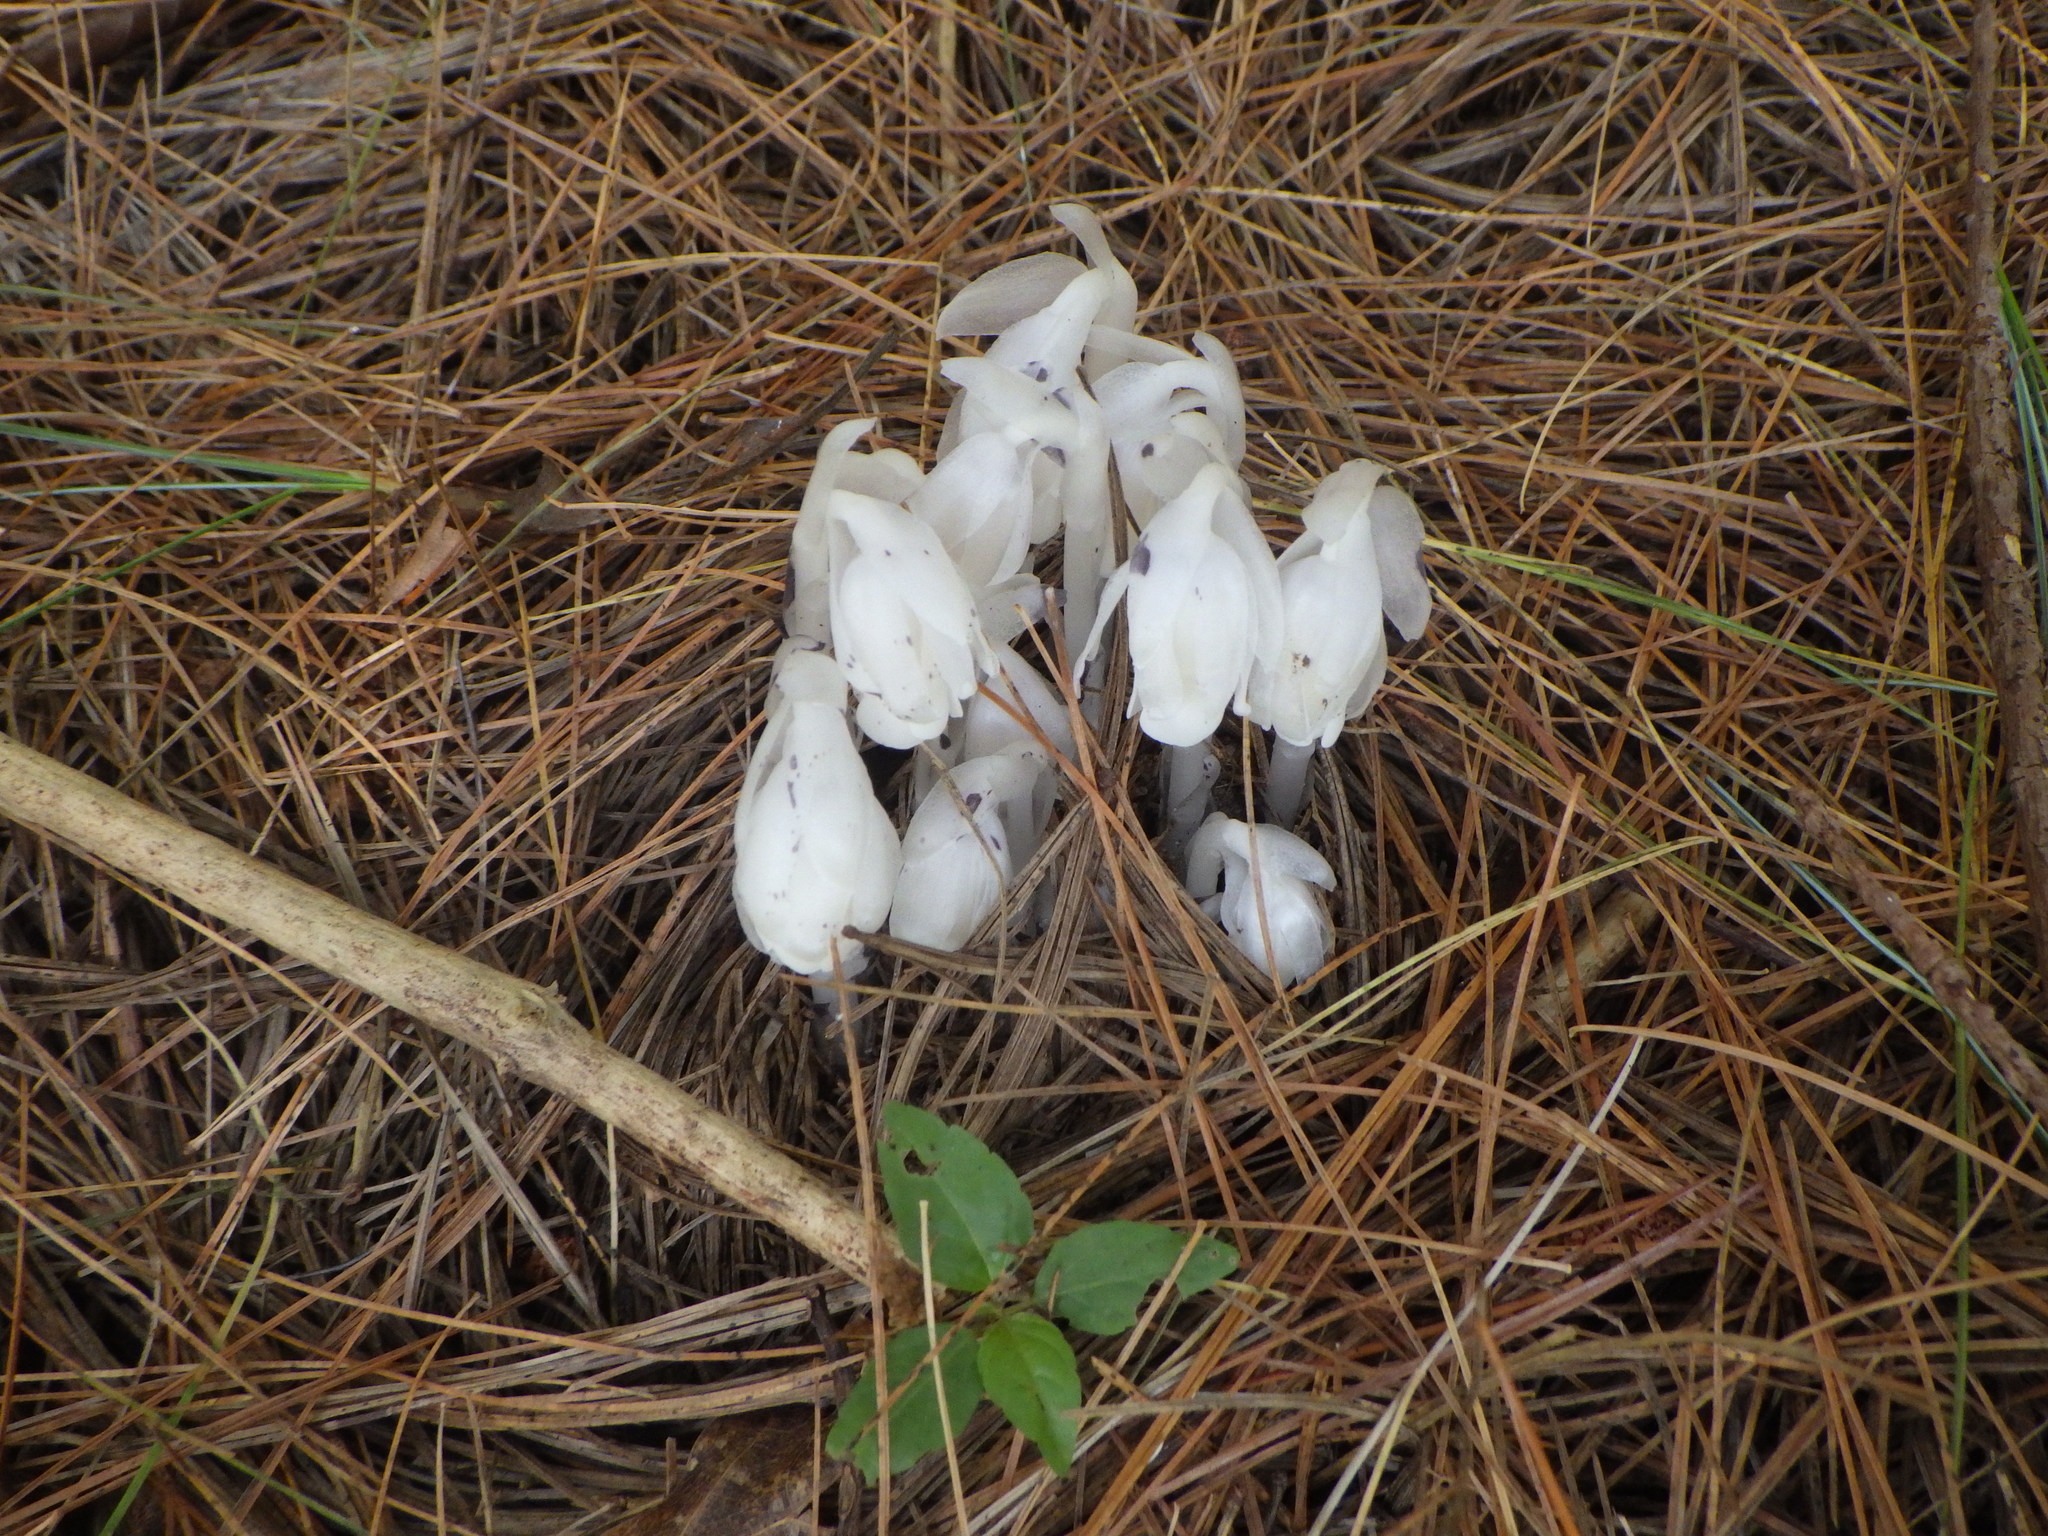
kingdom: Plantae
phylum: Tracheophyta
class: Magnoliopsida
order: Ericales
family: Ericaceae
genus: Monotropa
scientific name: Monotropa uniflora
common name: Convulsion root
